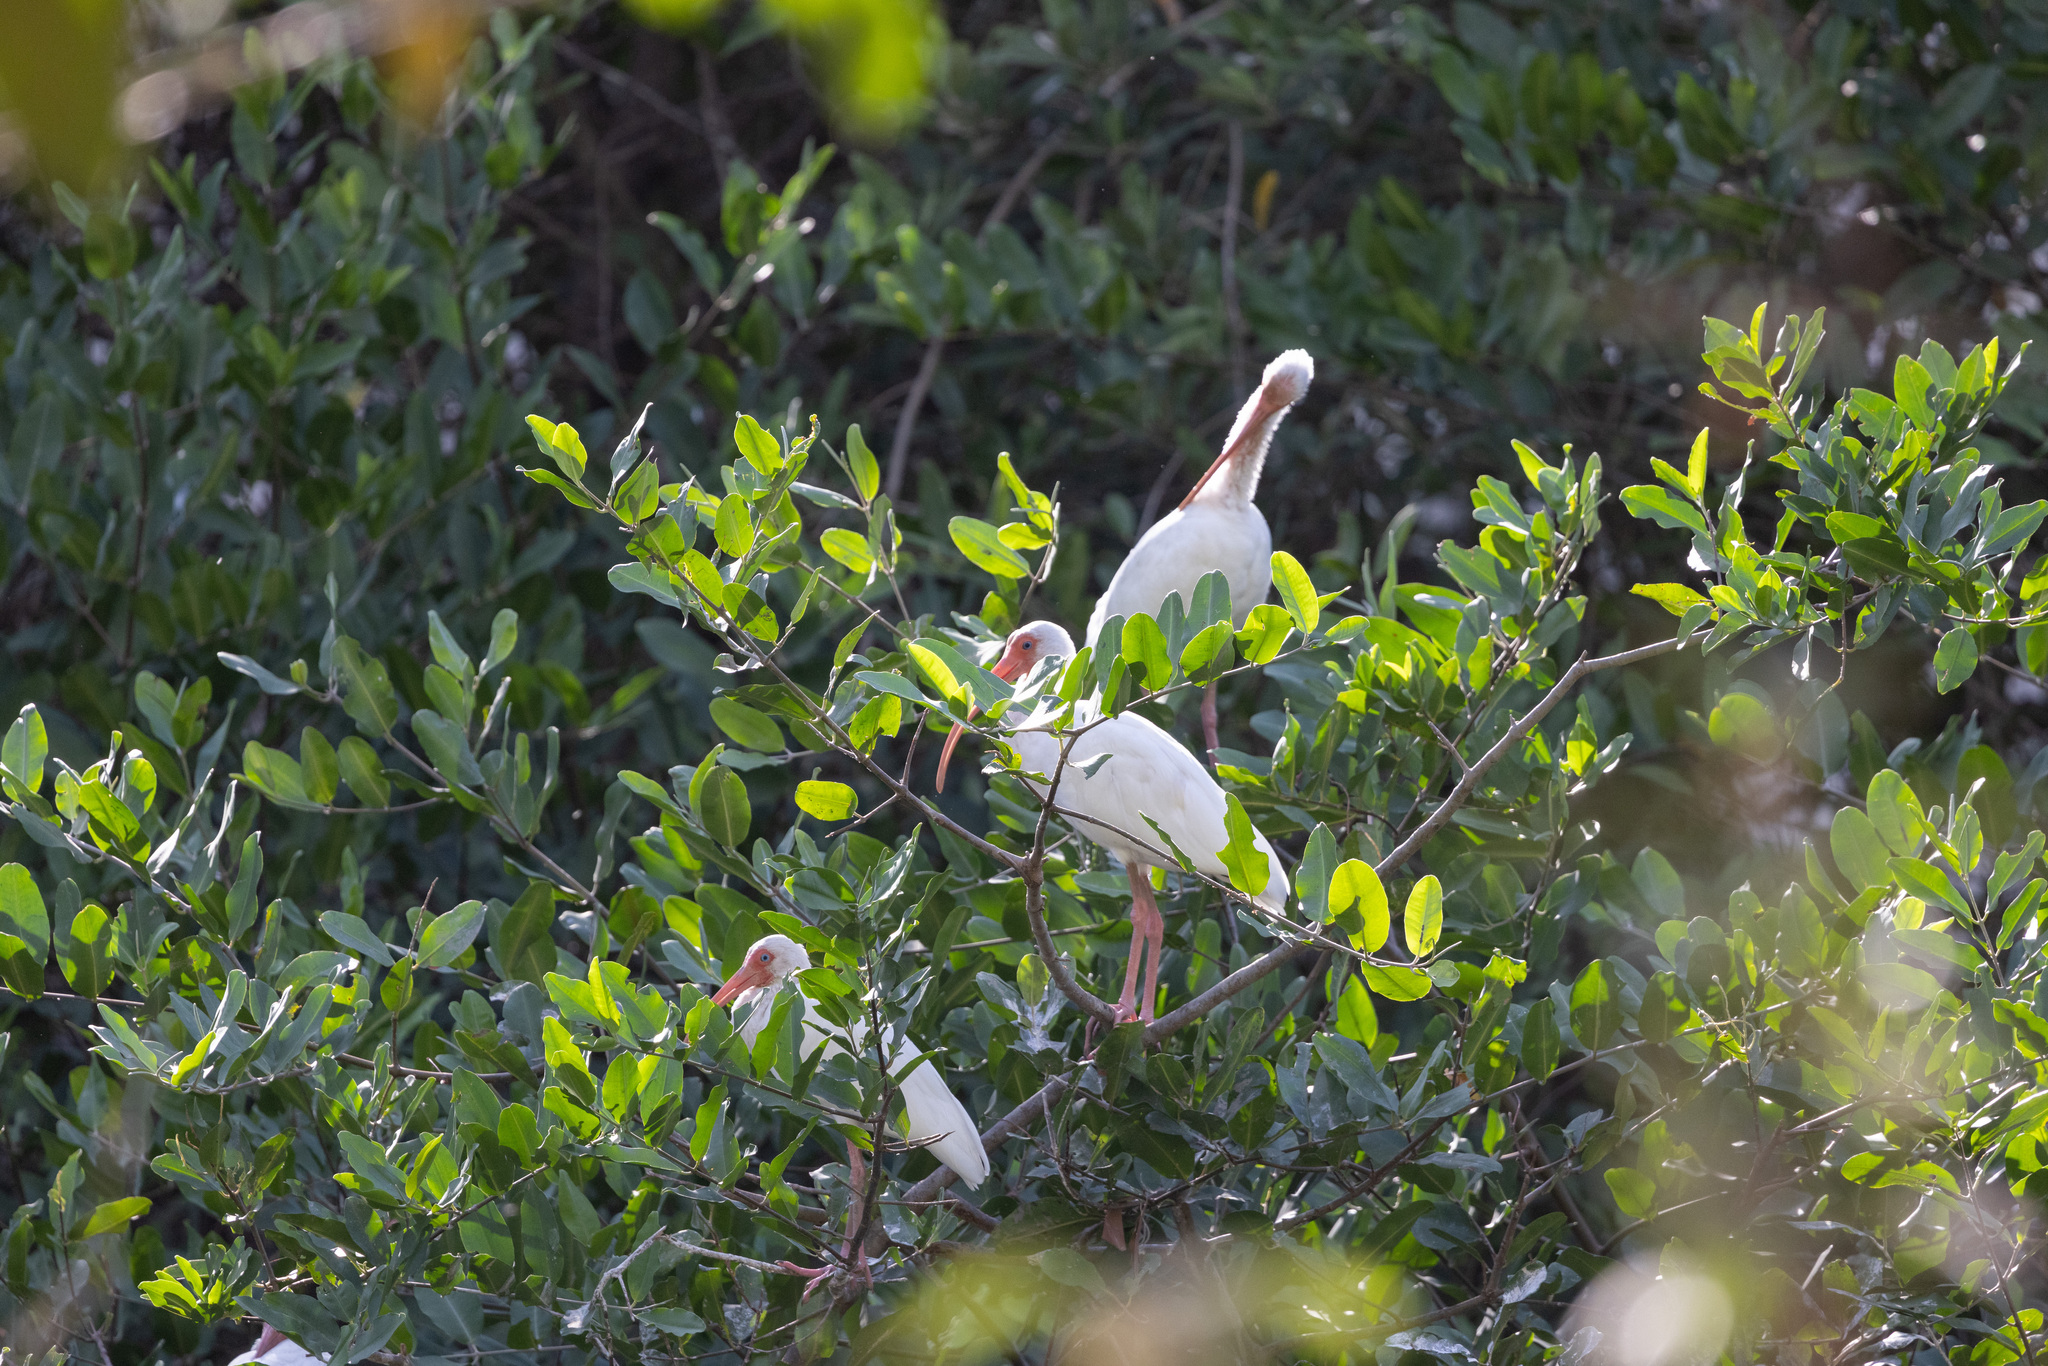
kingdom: Animalia
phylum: Chordata
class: Aves
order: Pelecaniformes
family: Threskiornithidae
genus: Eudocimus
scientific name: Eudocimus albus
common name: White ibis
